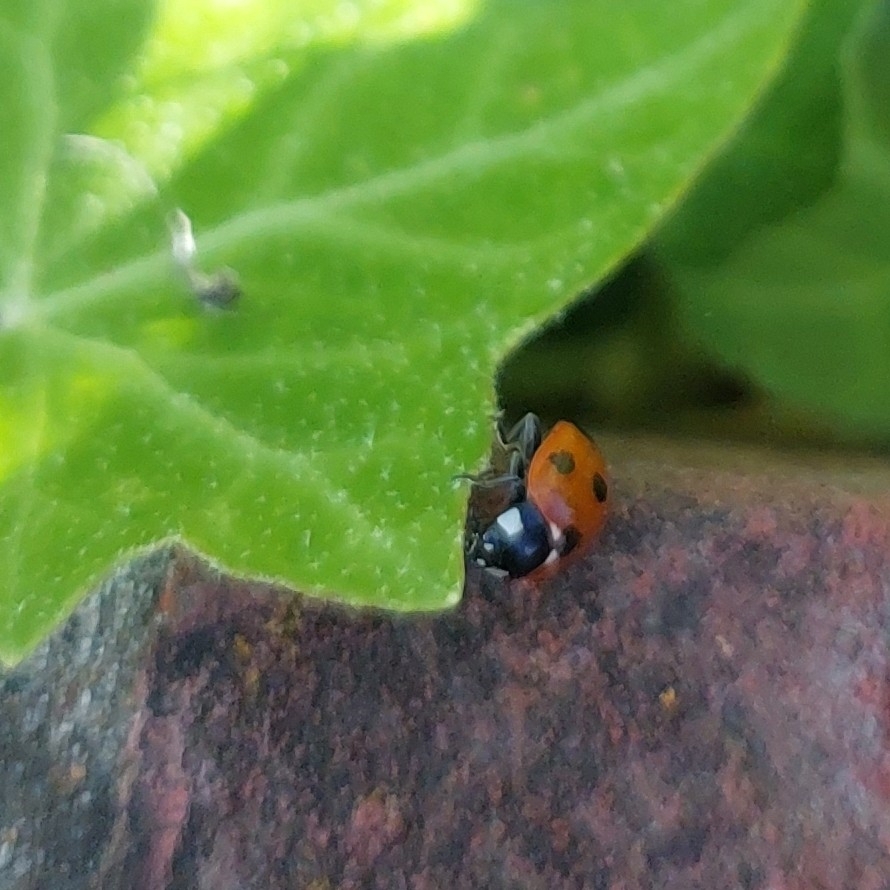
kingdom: Animalia
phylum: Arthropoda
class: Insecta
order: Coleoptera
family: Coccinellidae
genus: Coccinella
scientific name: Coccinella septempunctata
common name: Sevenspotted lady beetle
